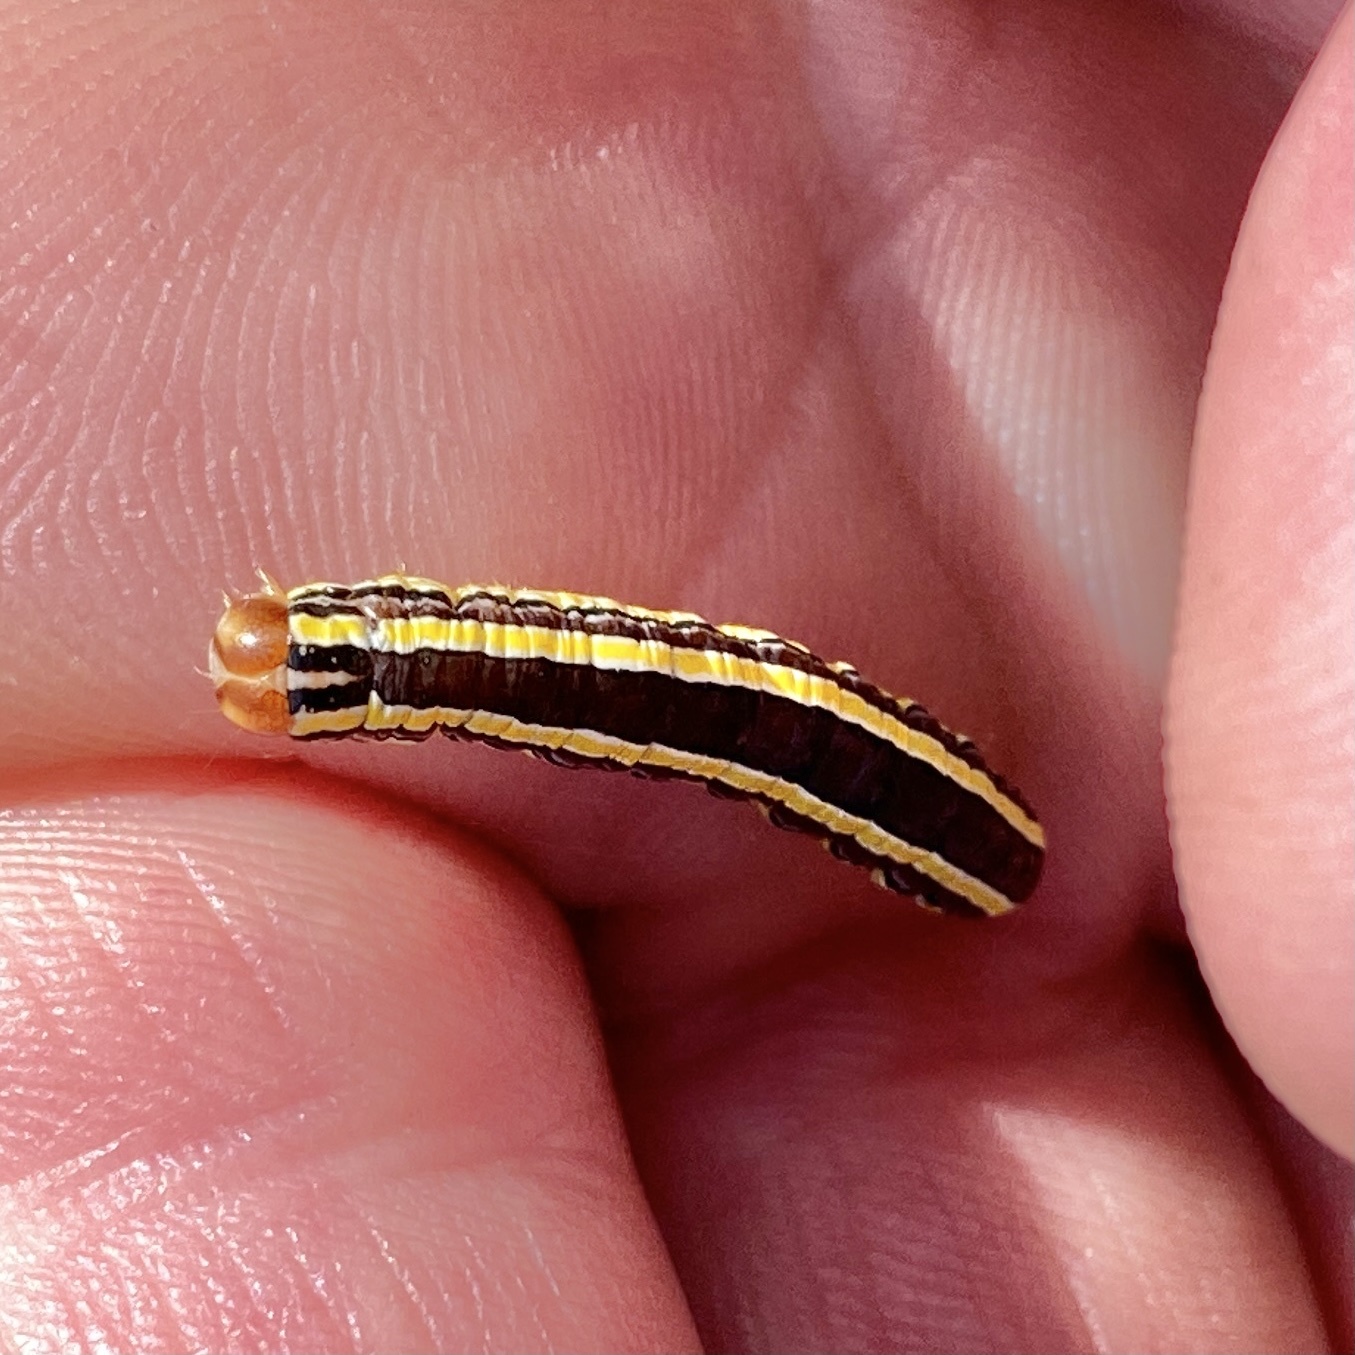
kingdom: Animalia
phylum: Arthropoda
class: Insecta
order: Lepidoptera
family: Noctuidae
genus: Trichordestra
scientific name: Trichordestra legitima
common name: Striped garden caterpillar
